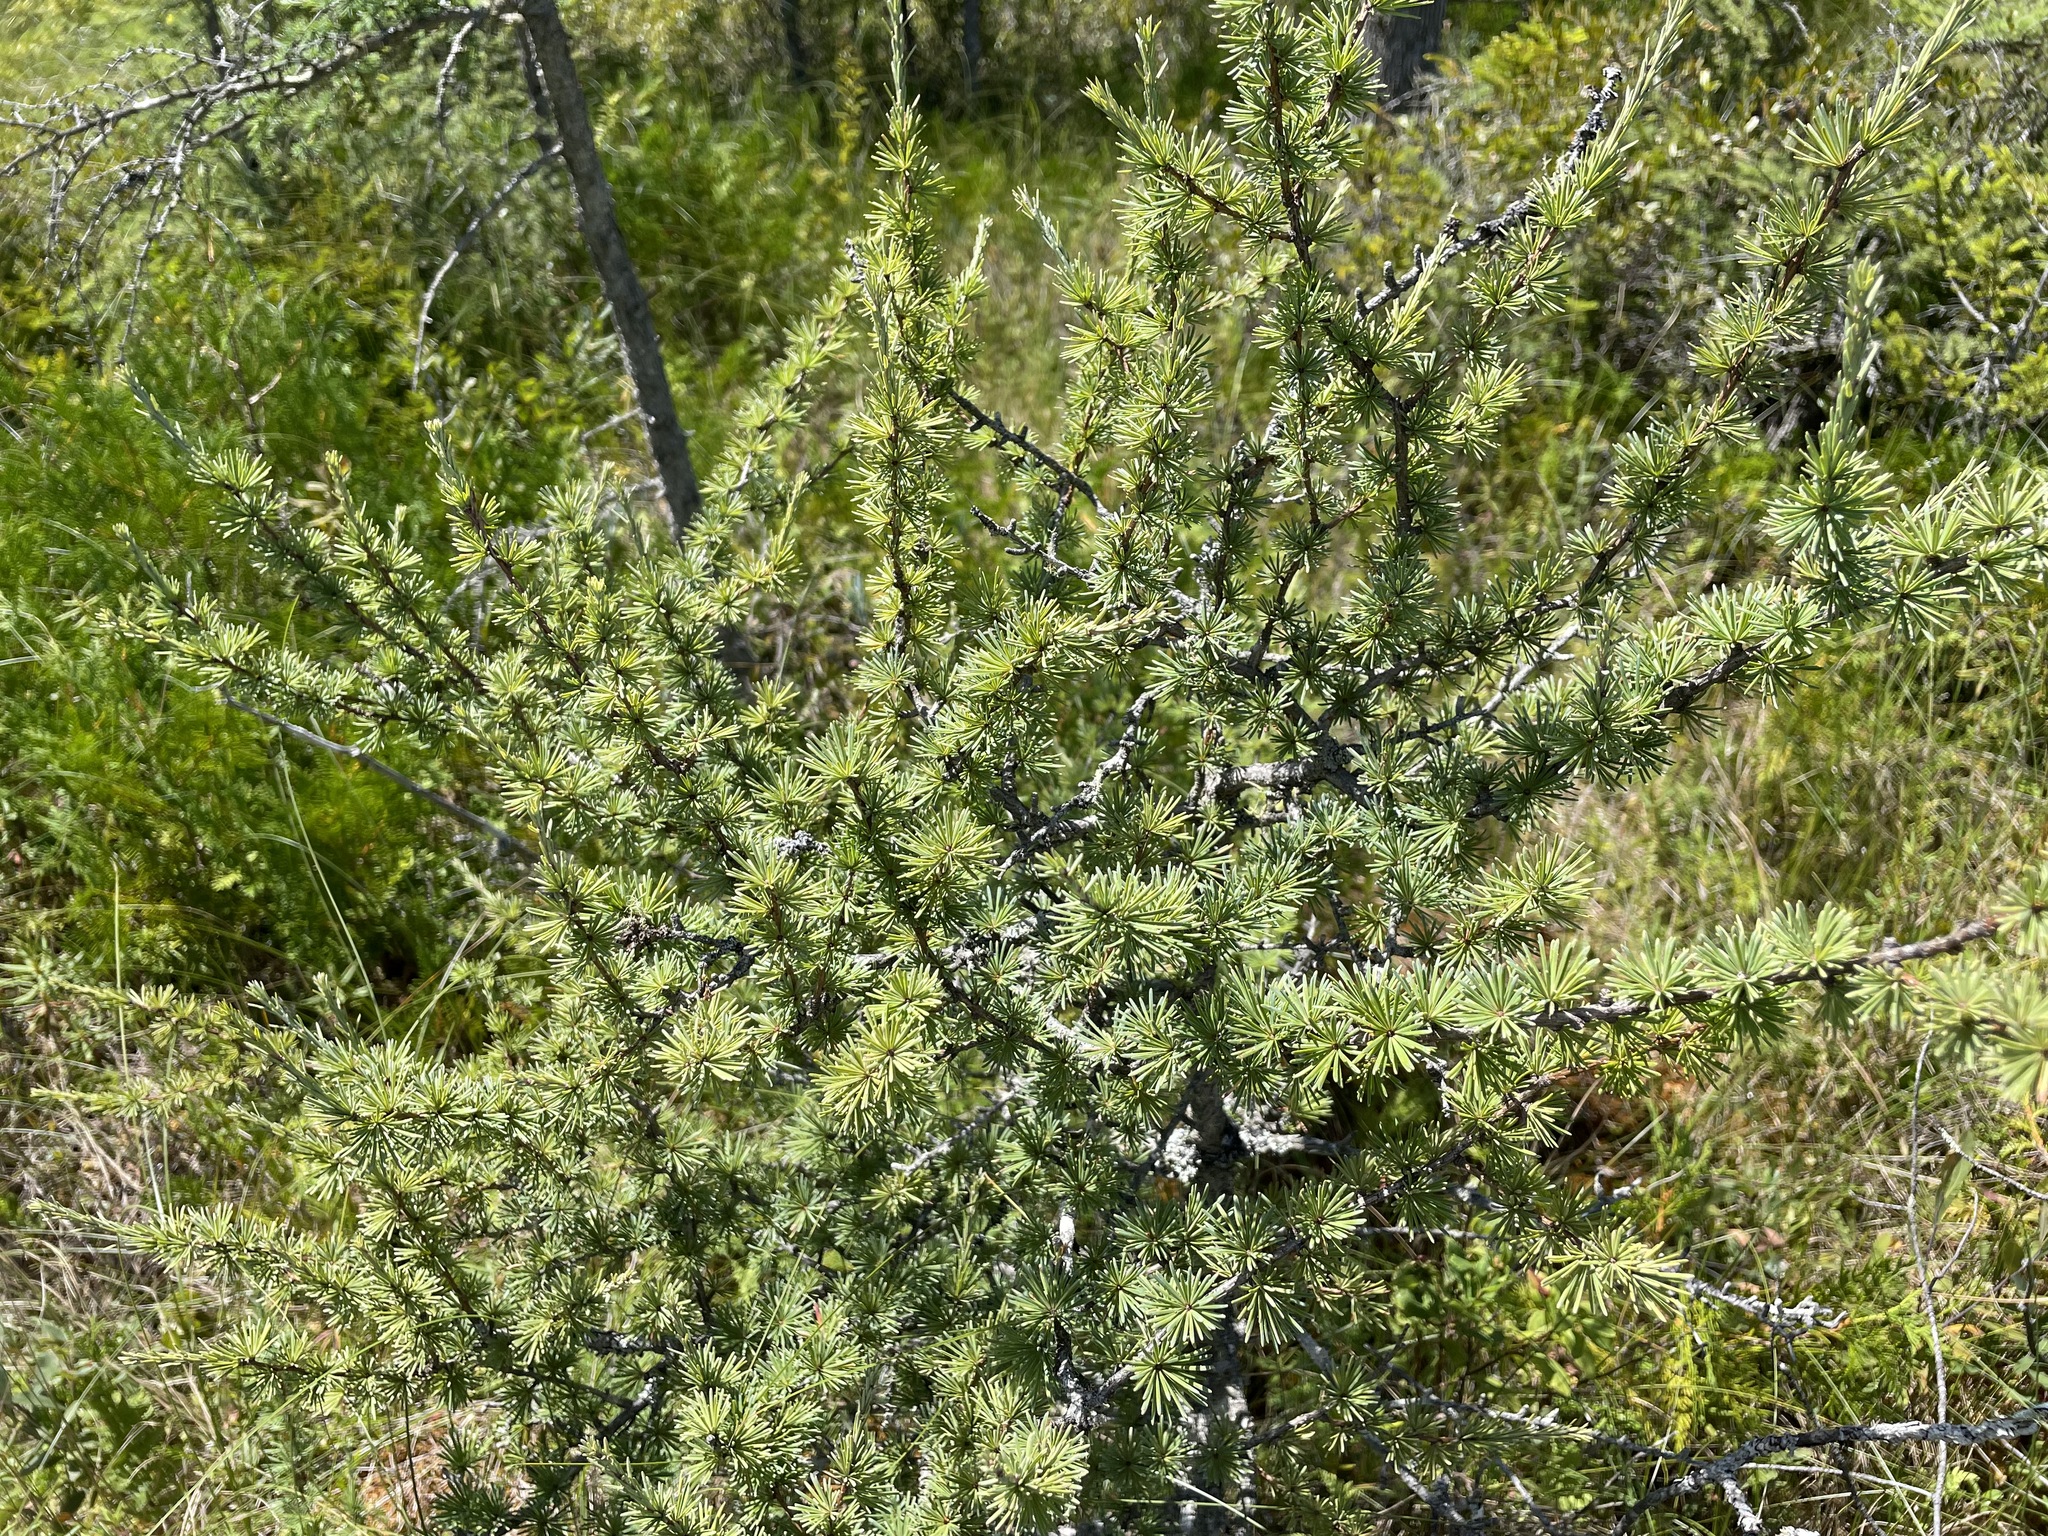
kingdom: Plantae
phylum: Tracheophyta
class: Pinopsida
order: Pinales
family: Pinaceae
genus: Larix
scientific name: Larix laricina
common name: American larch
